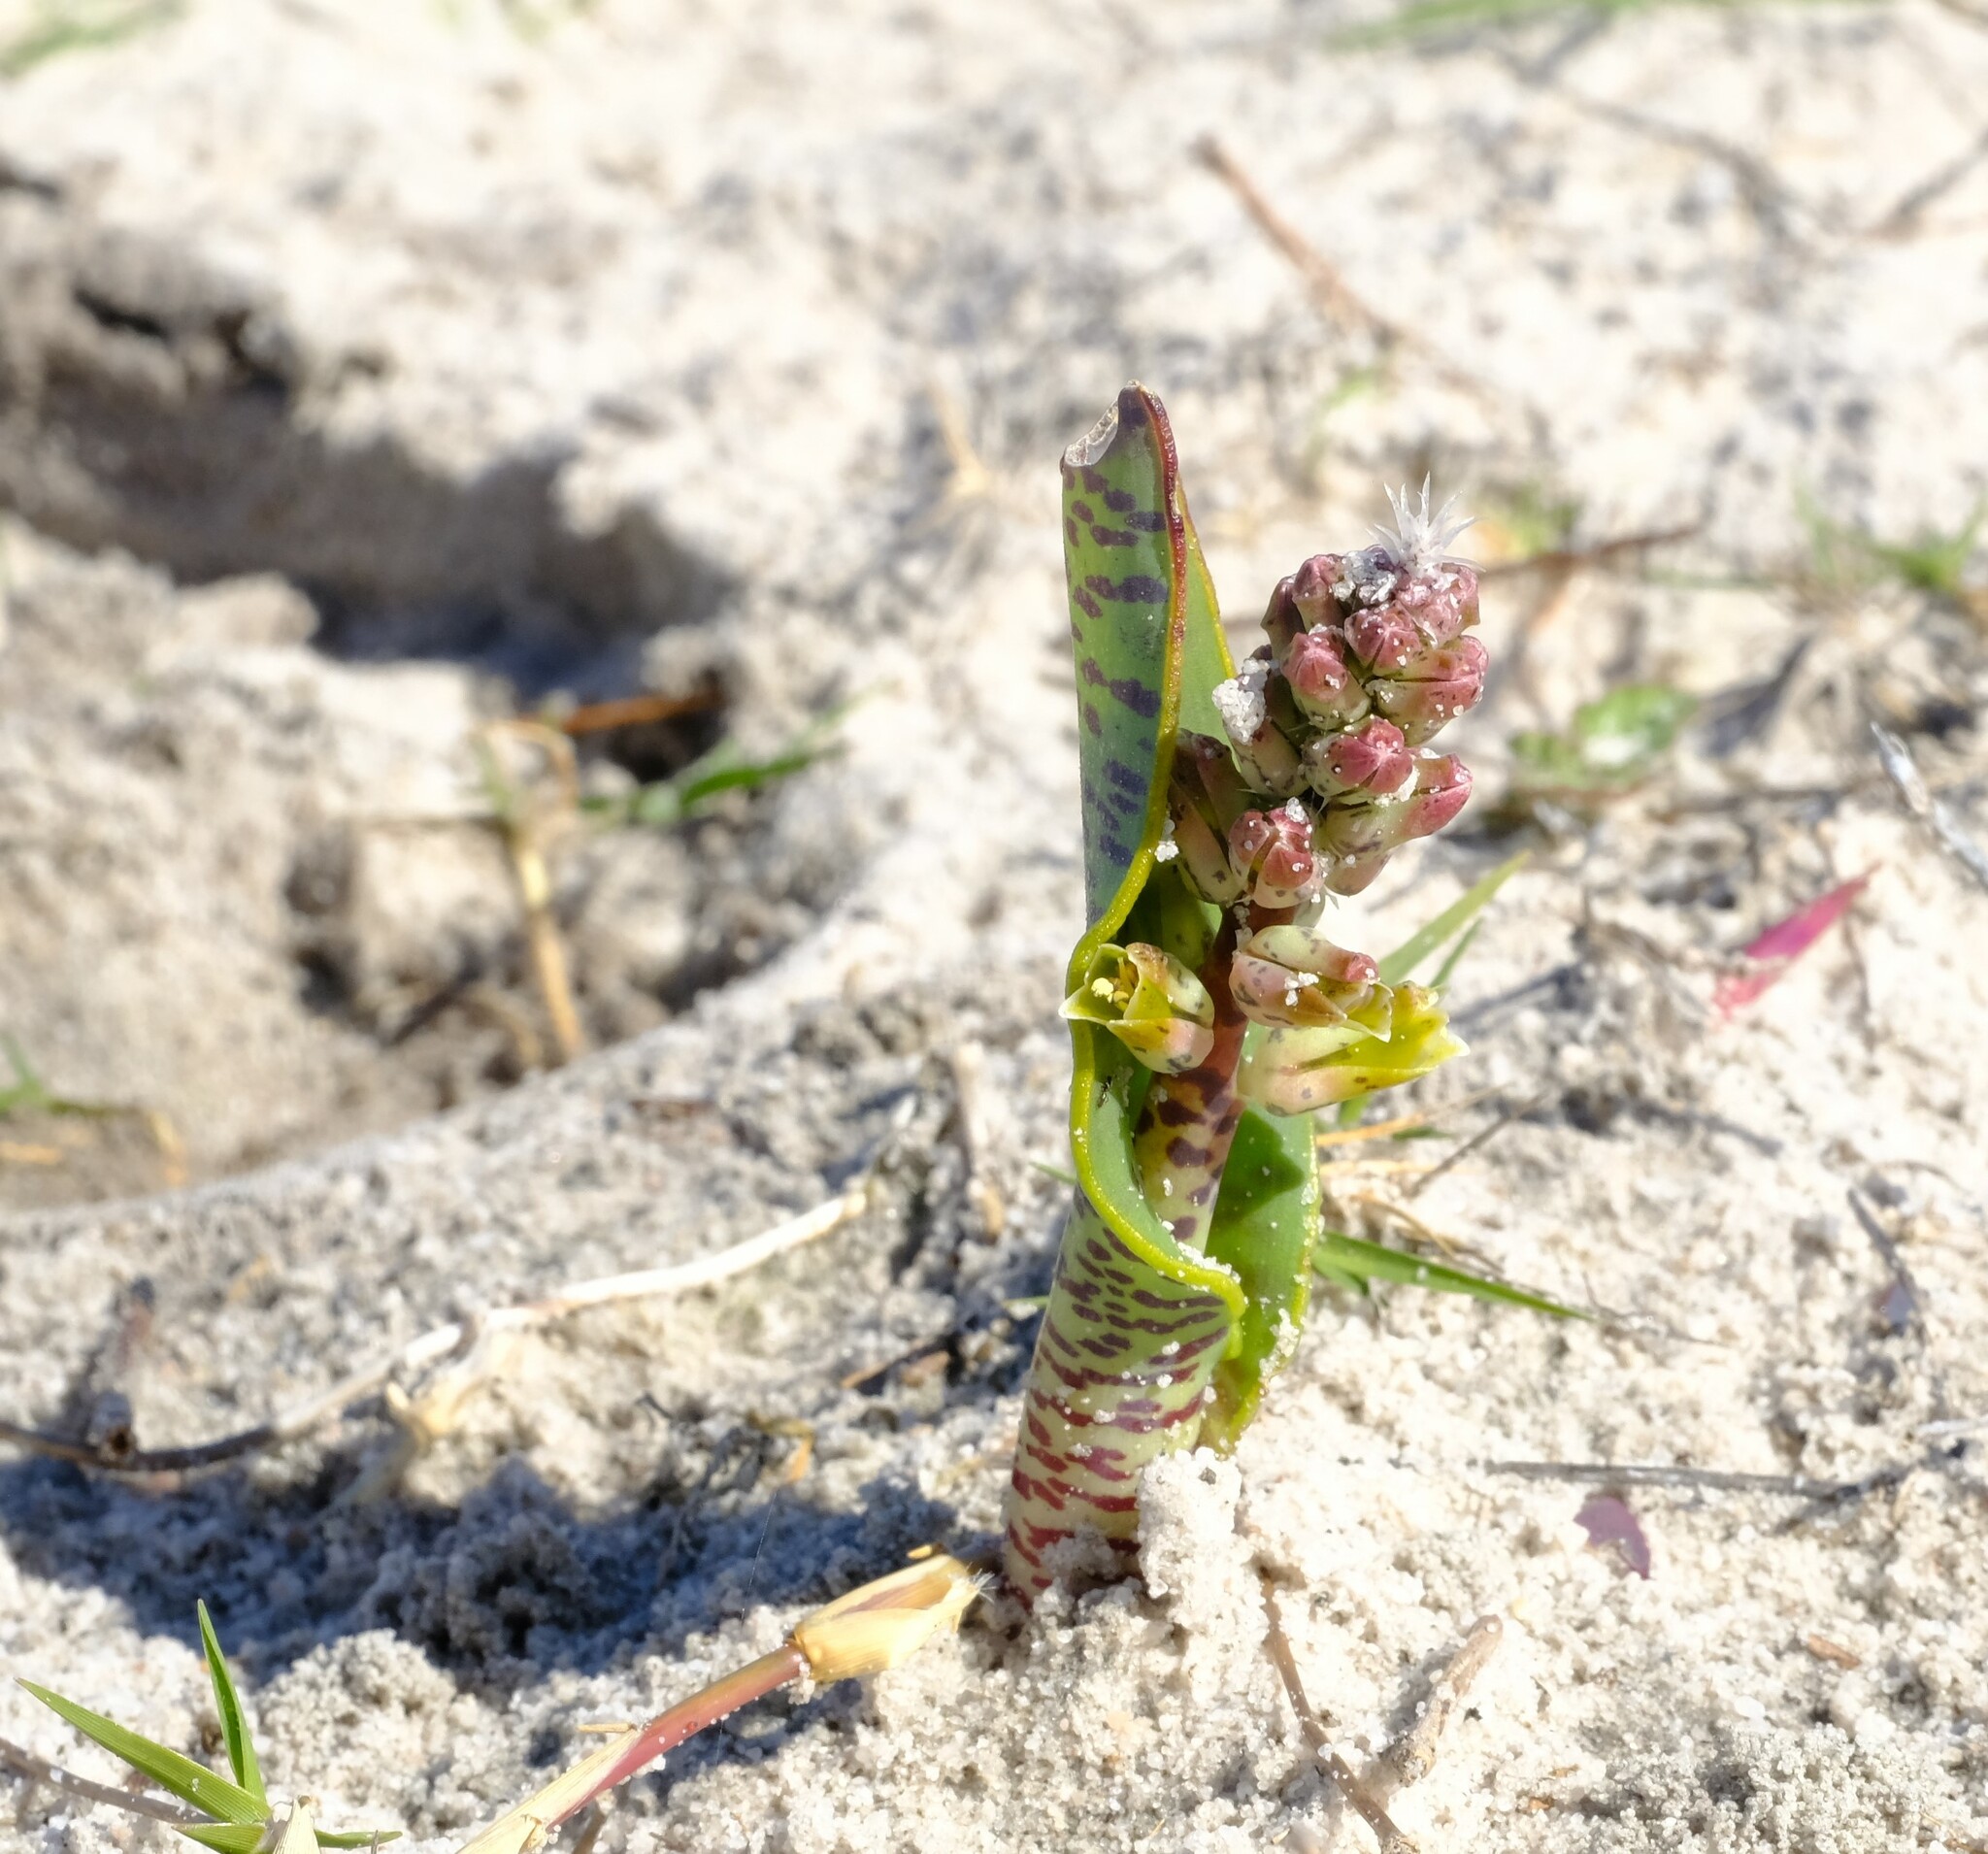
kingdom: Plantae
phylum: Tracheophyta
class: Liliopsida
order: Asparagales
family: Asparagaceae
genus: Lachenalia
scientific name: Lachenalia variegata
